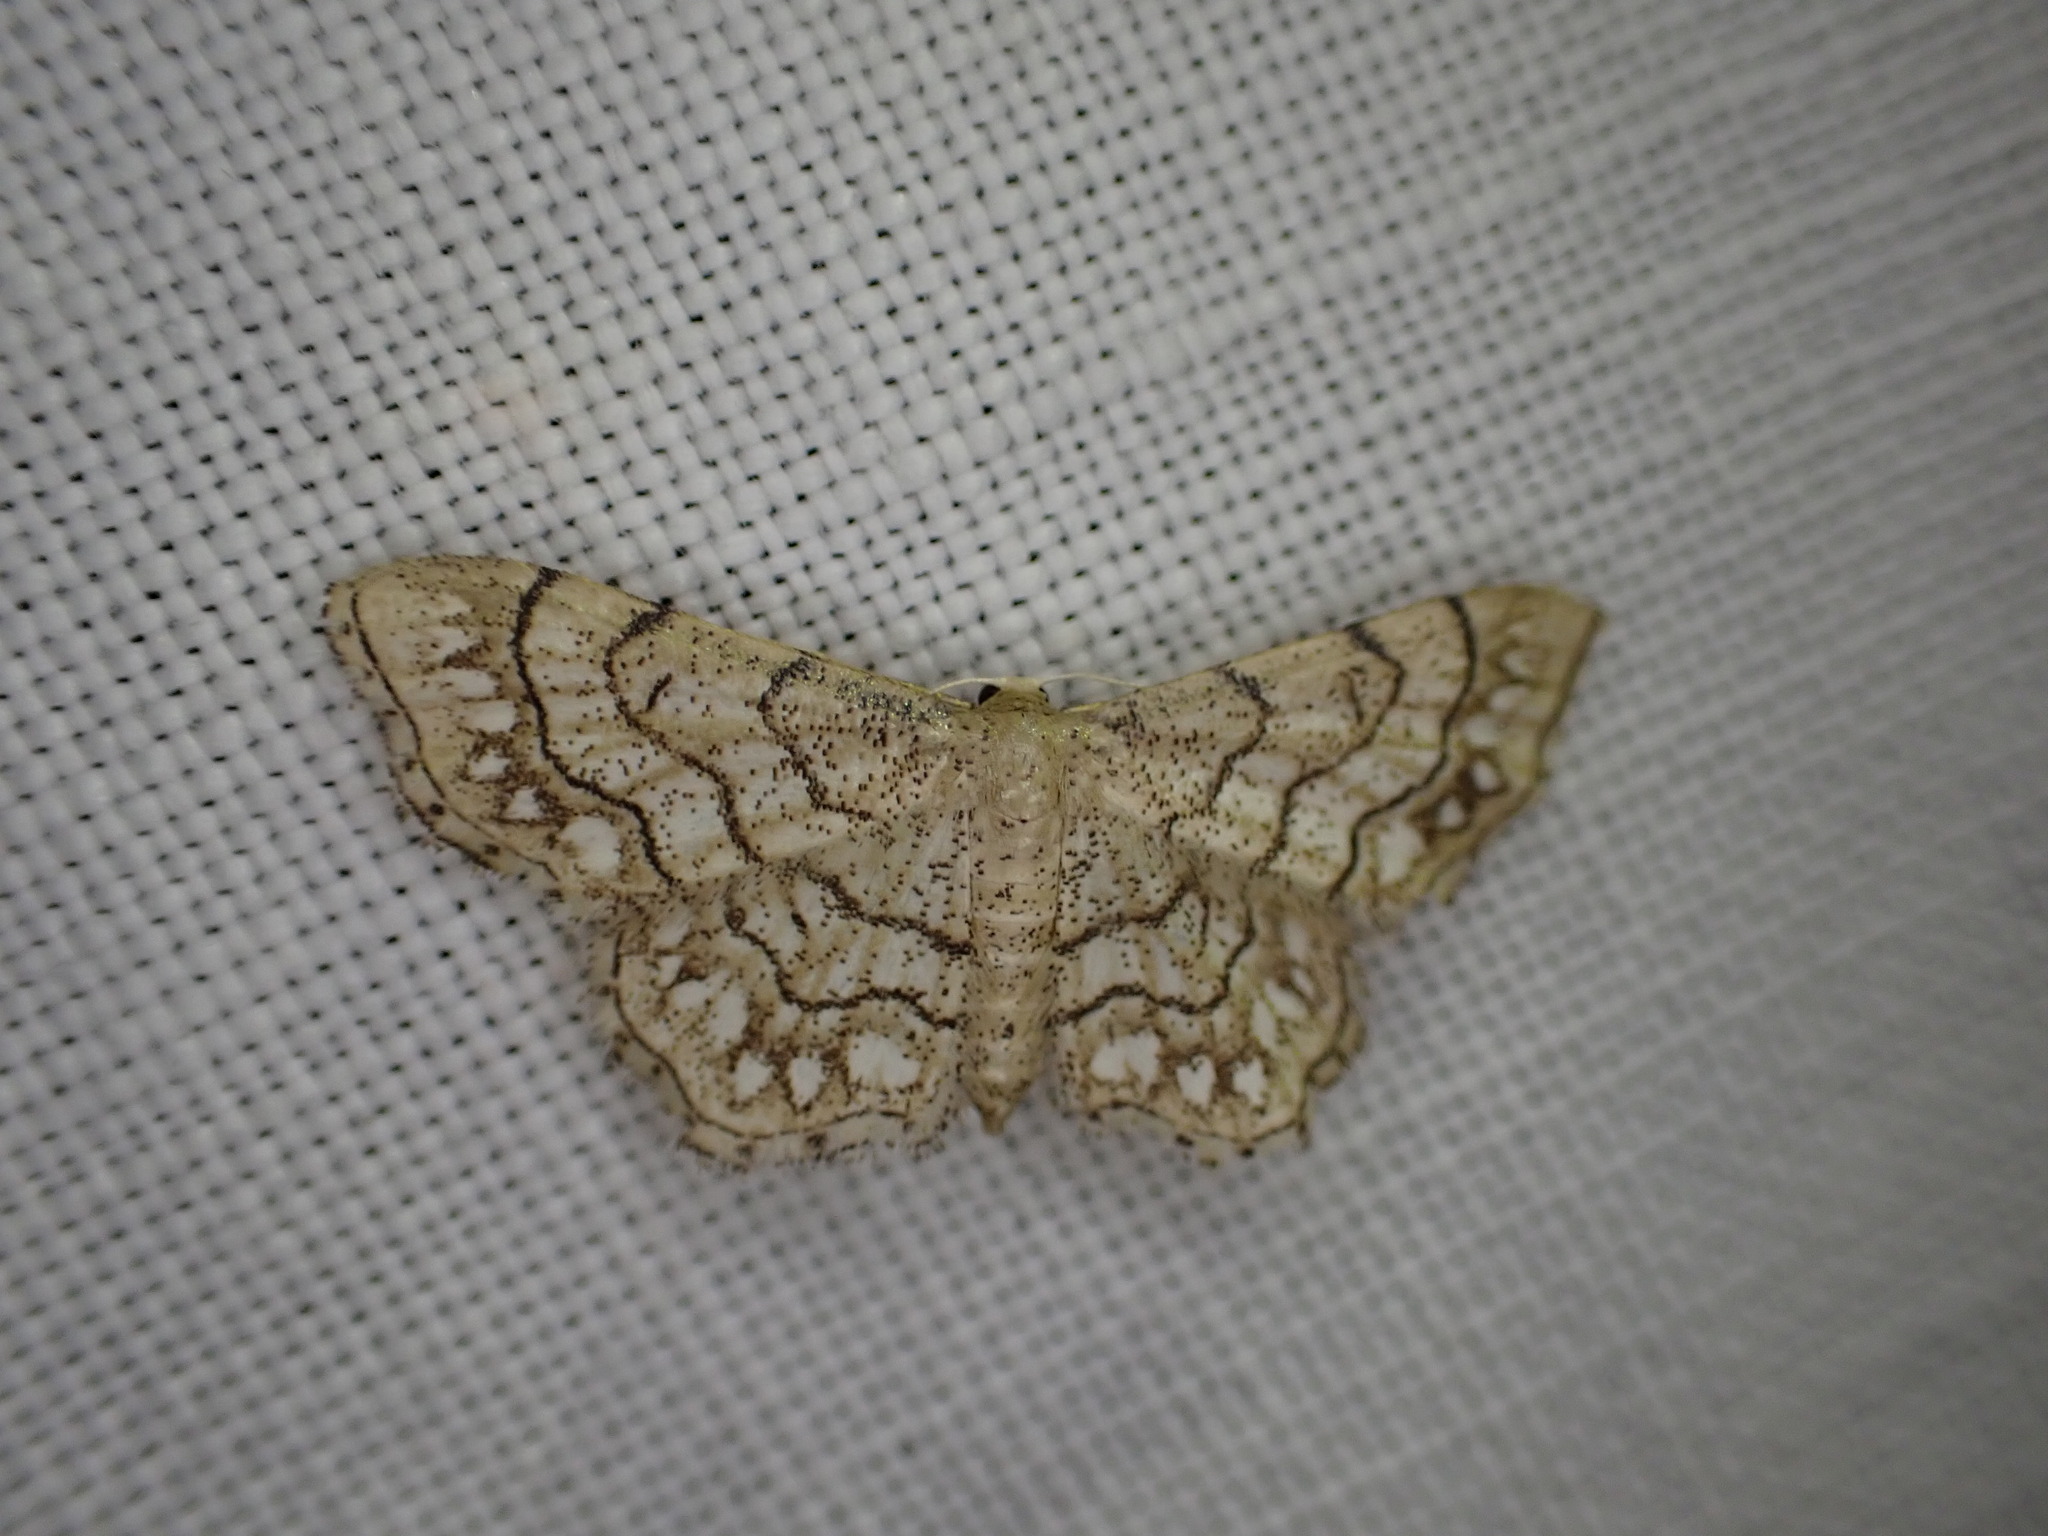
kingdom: Animalia
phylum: Arthropoda
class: Insecta
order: Lepidoptera
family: Geometridae
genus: Idaea
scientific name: Idaea moniliata
